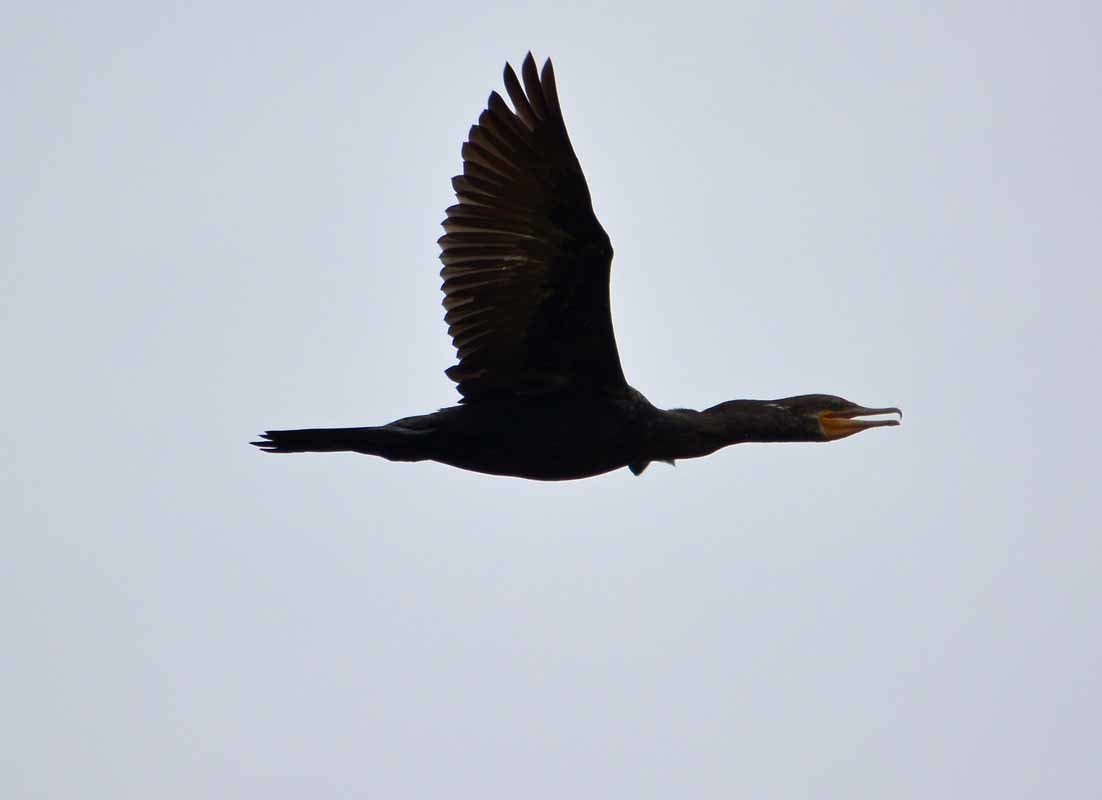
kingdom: Animalia
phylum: Chordata
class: Aves
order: Suliformes
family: Phalacrocoracidae
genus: Phalacrocorax
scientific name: Phalacrocorax brasilianus
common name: Neotropic cormorant
